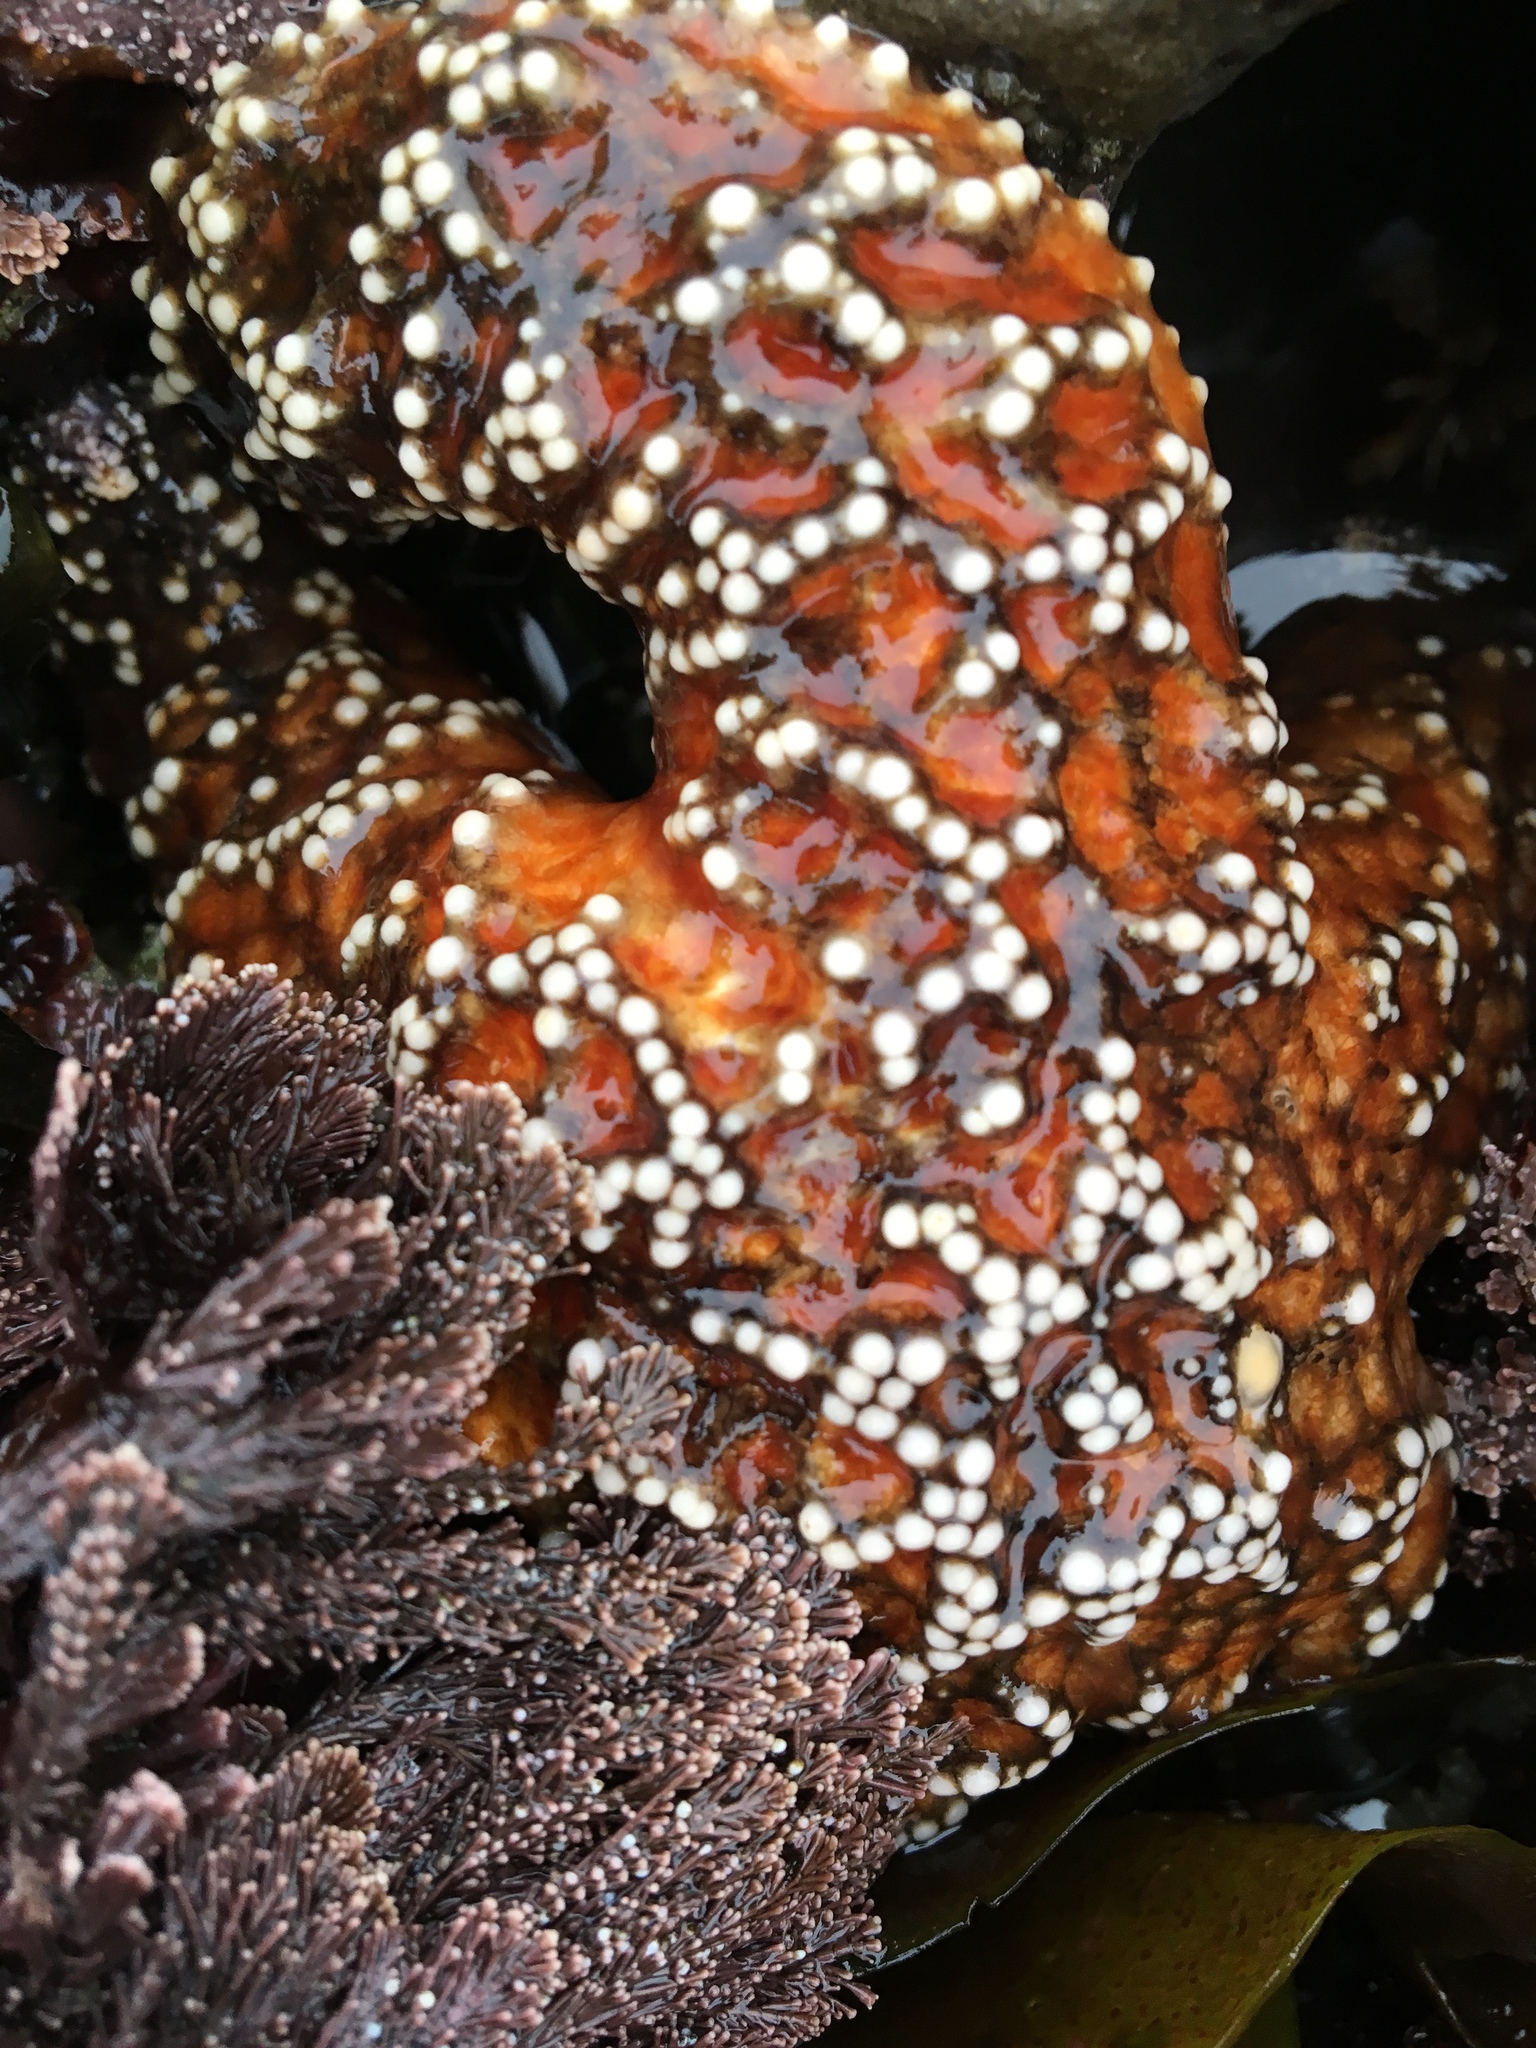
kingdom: Animalia
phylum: Echinodermata
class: Asteroidea
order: Forcipulatida
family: Asteriidae
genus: Pisaster
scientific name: Pisaster ochraceus
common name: Ochre stars
